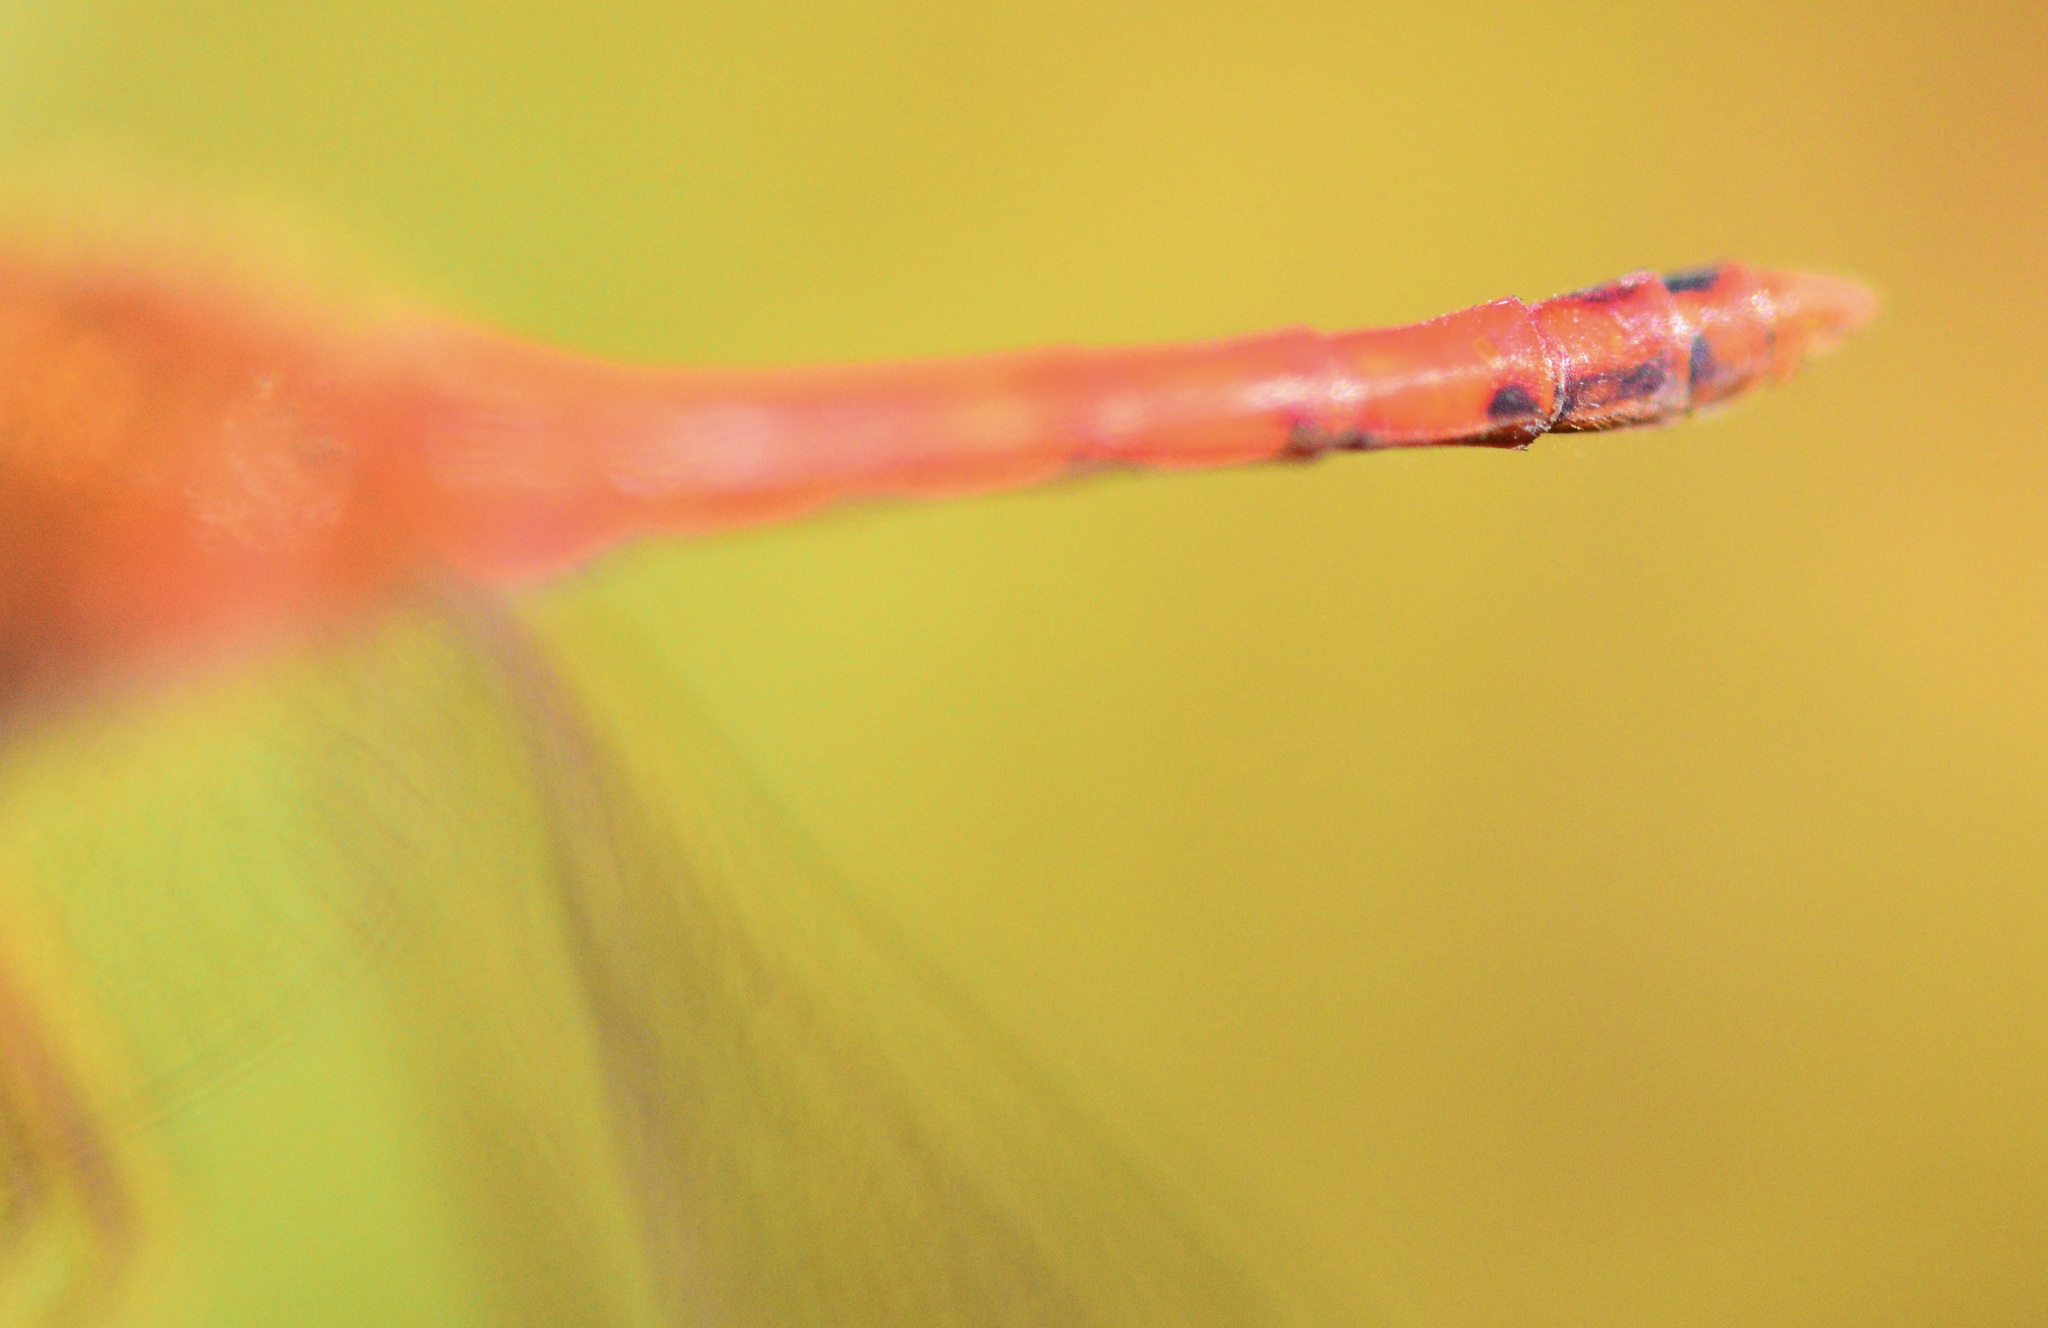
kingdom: Animalia
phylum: Arthropoda
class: Insecta
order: Odonata
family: Libellulidae
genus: Sympetrum
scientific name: Sympetrum vicinum
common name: Autumn meadowhawk
